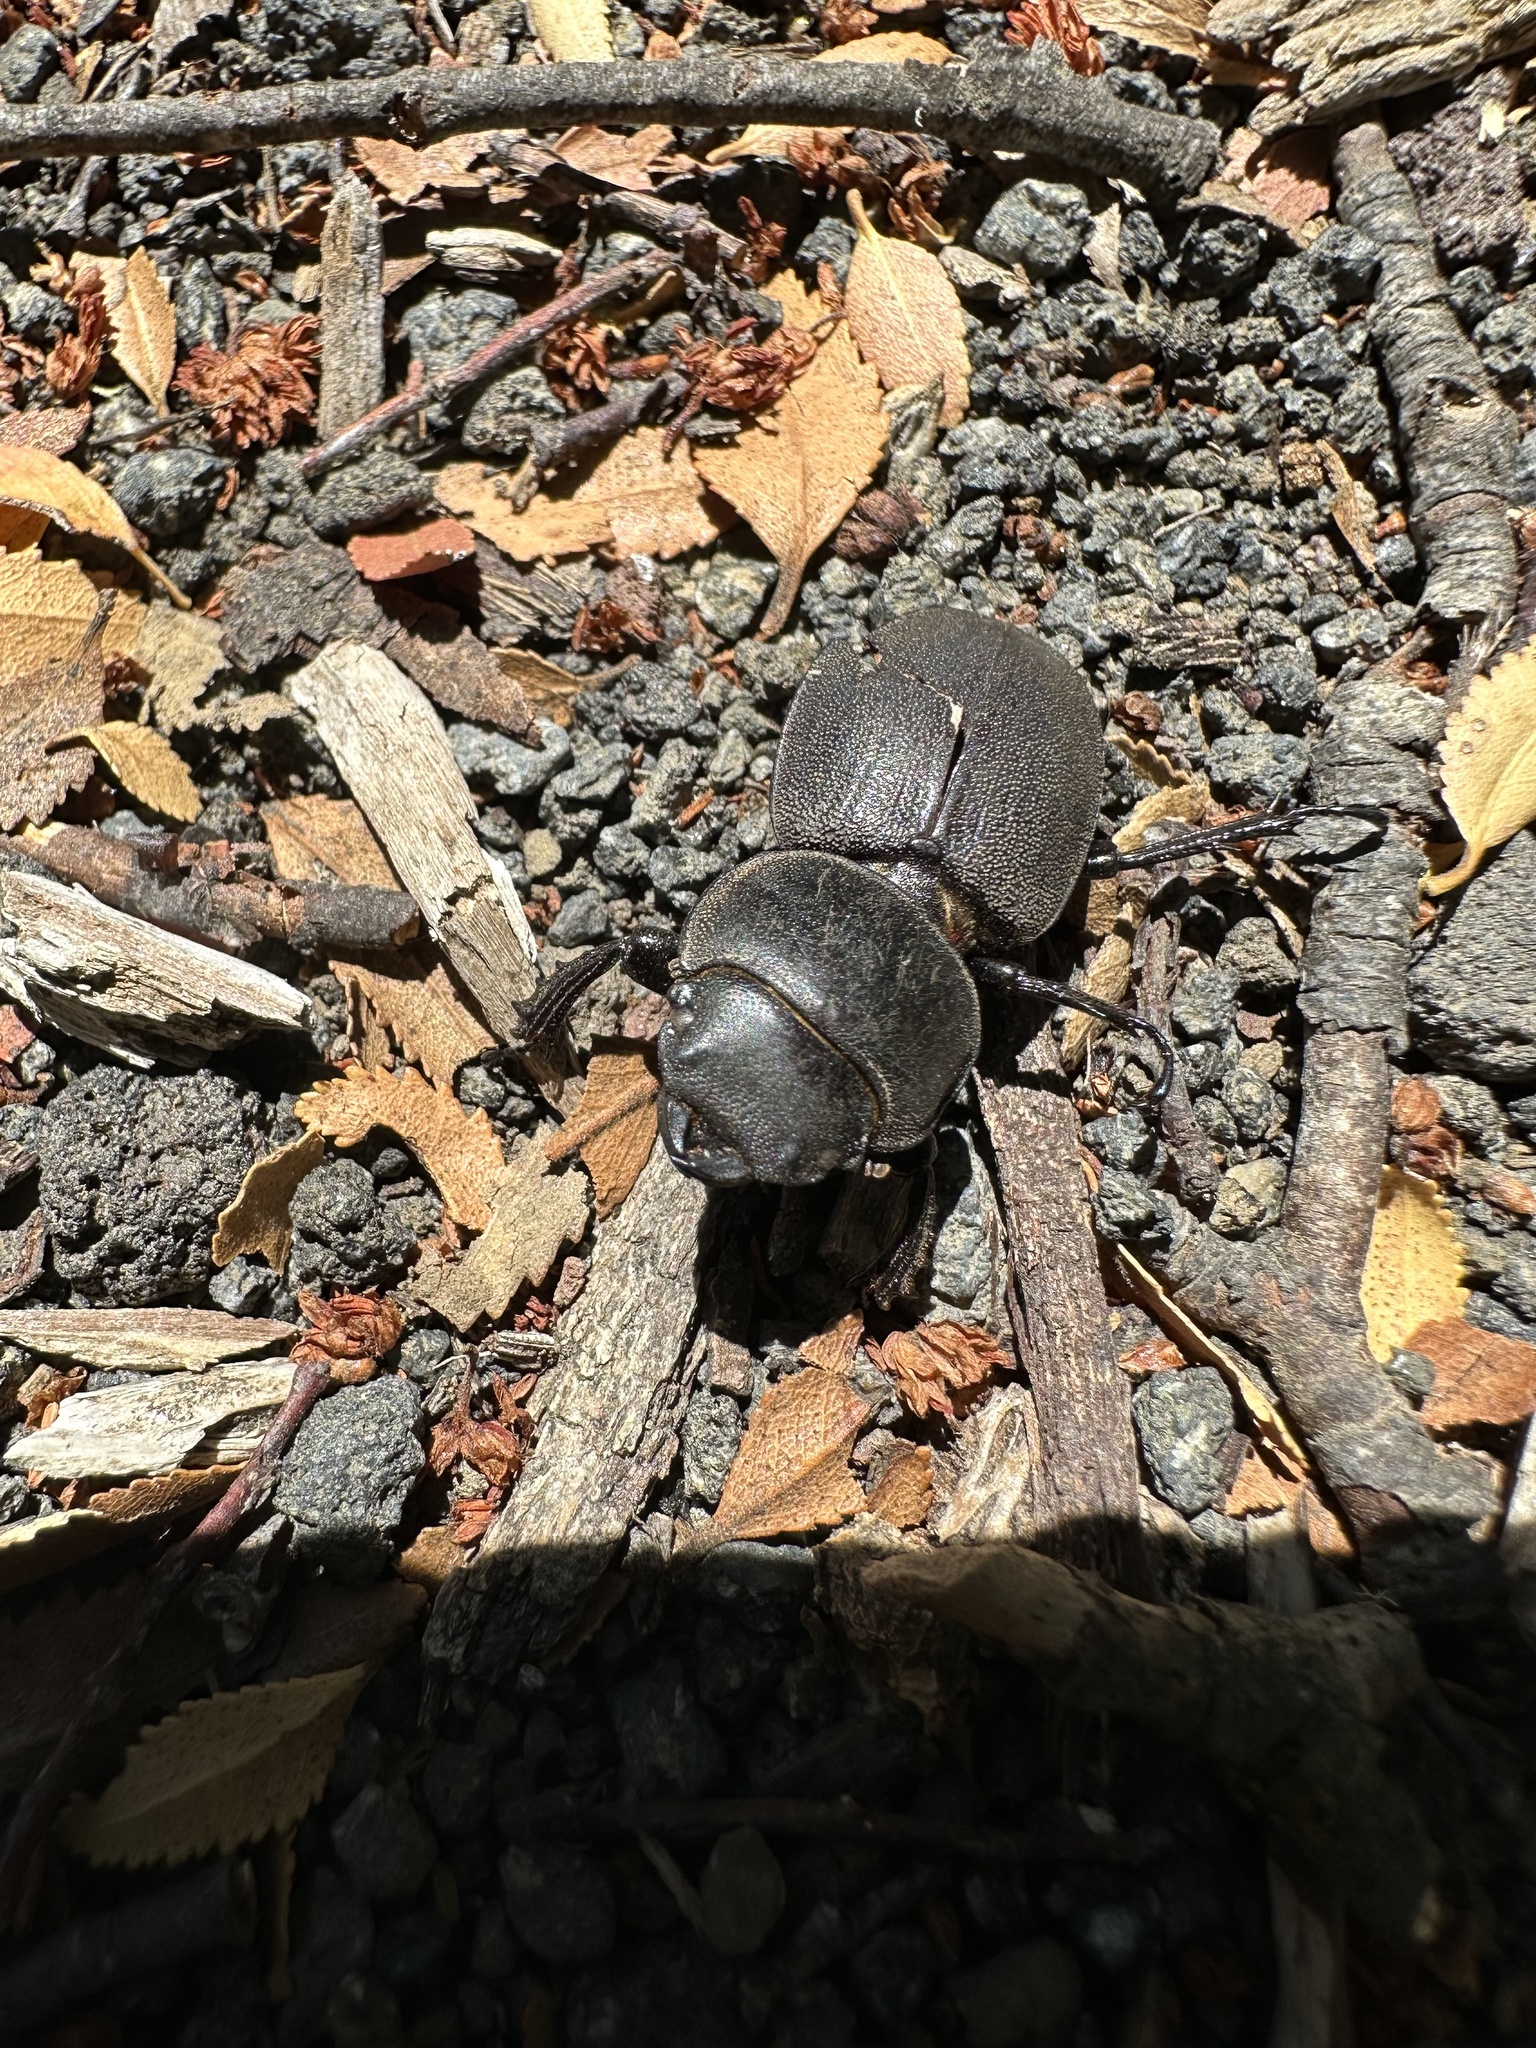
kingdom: Animalia
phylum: Arthropoda
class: Insecta
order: Coleoptera
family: Lucanidae
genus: Apterodorcus
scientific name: Apterodorcus bacchus
